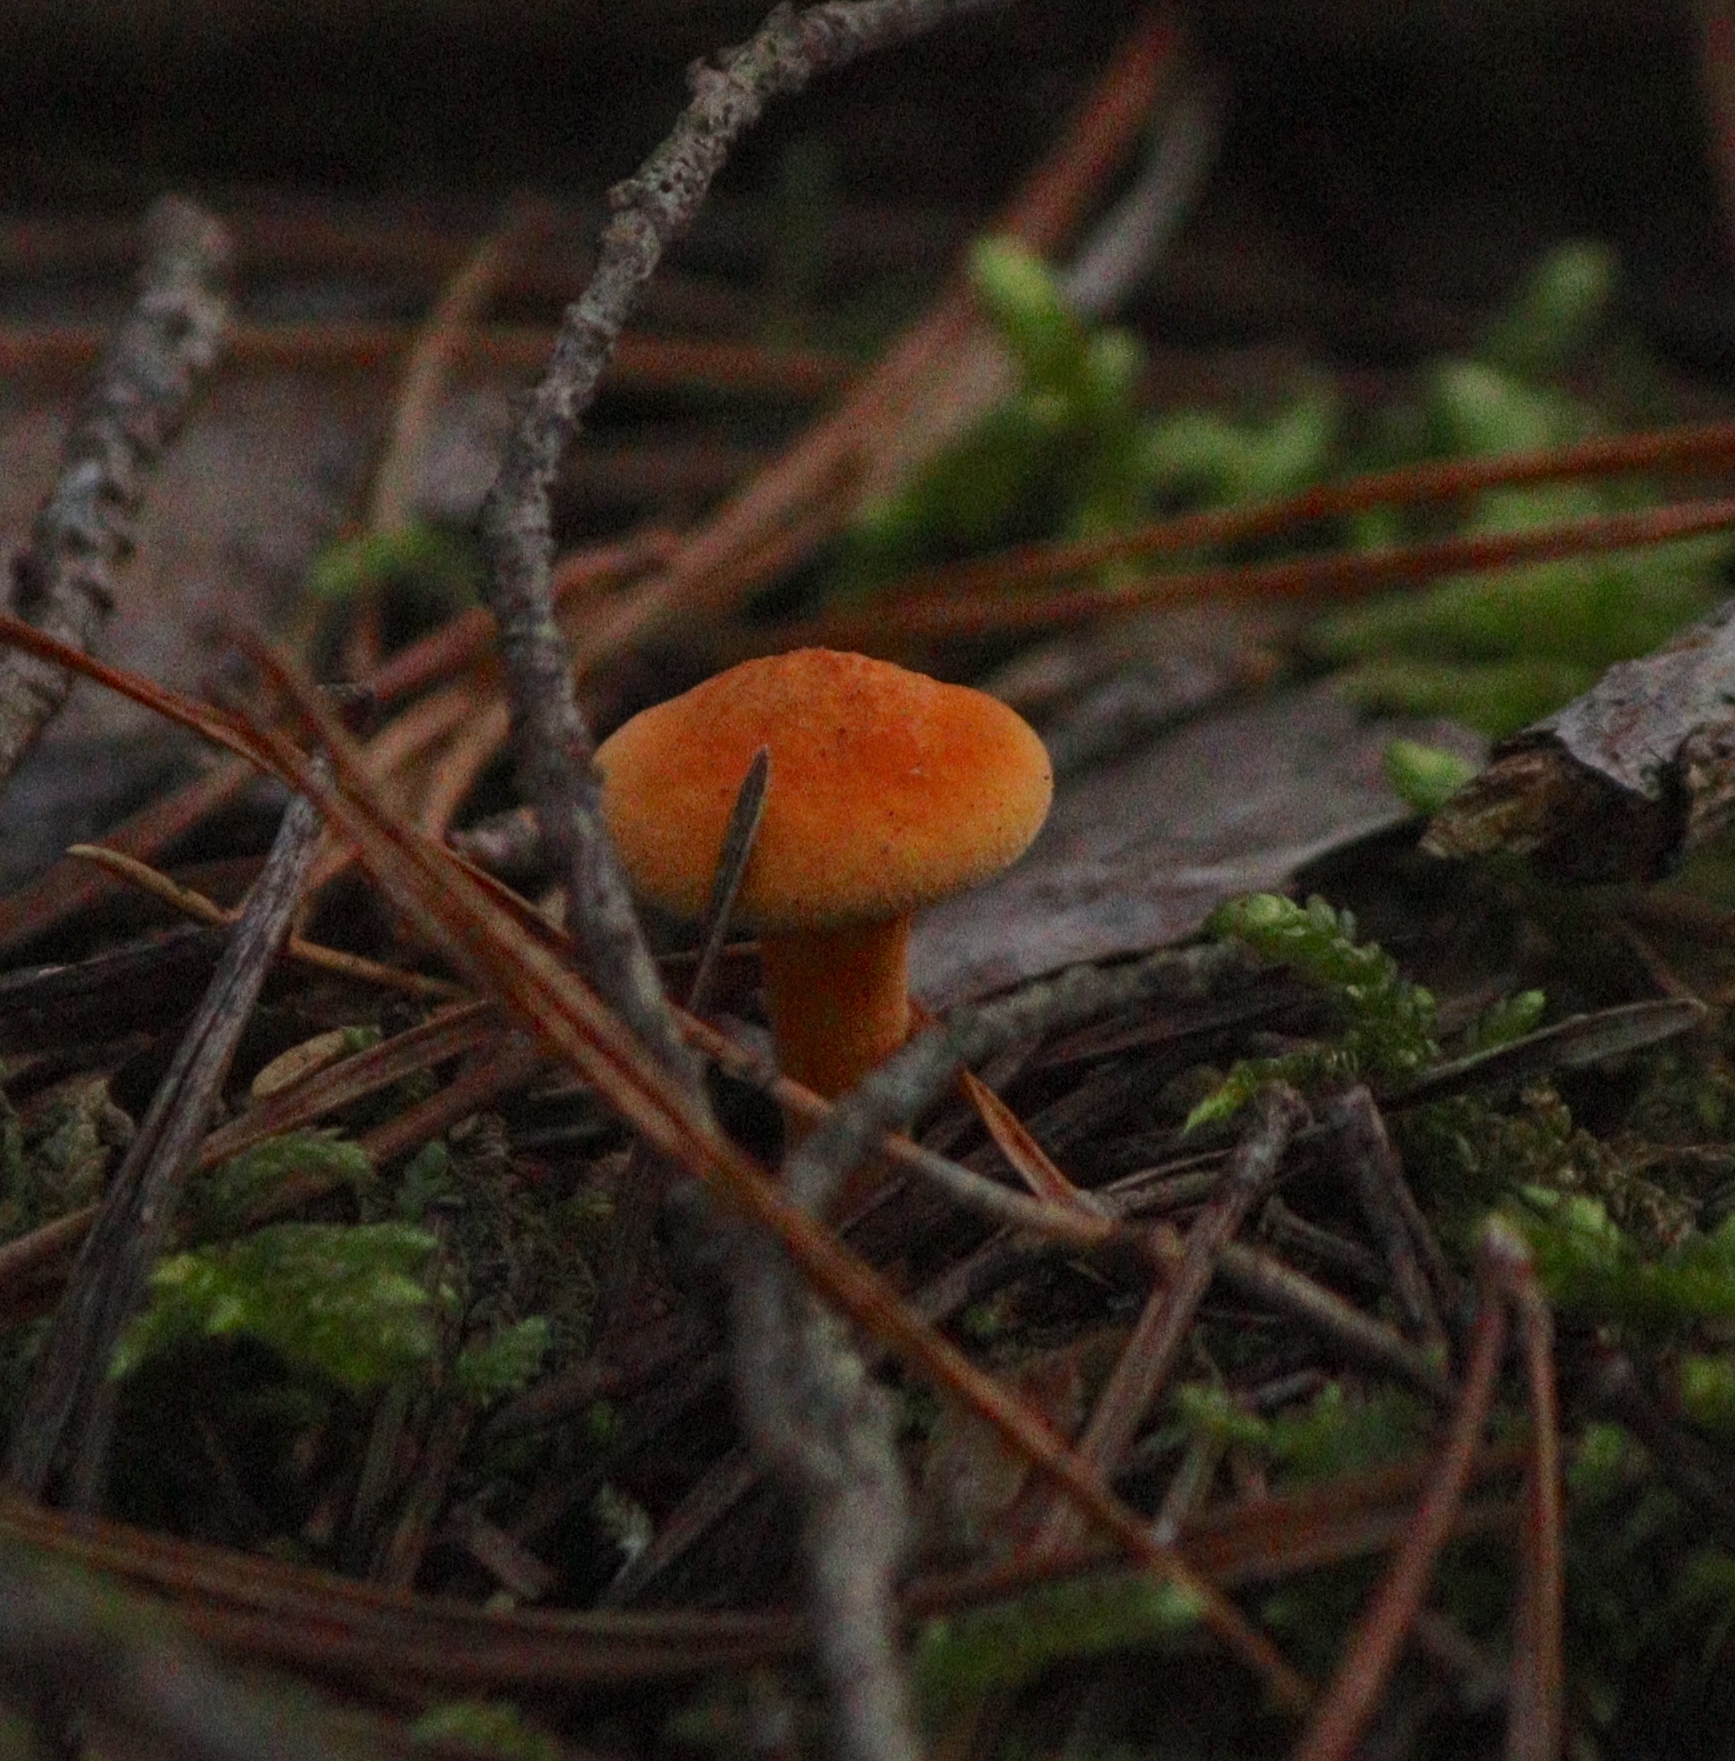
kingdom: Fungi
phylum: Basidiomycota
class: Agaricomycetes
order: Boletales
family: Hygrophoropsidaceae
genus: Hygrophoropsis
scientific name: Hygrophoropsis aurantiaca
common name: False chanterelle
